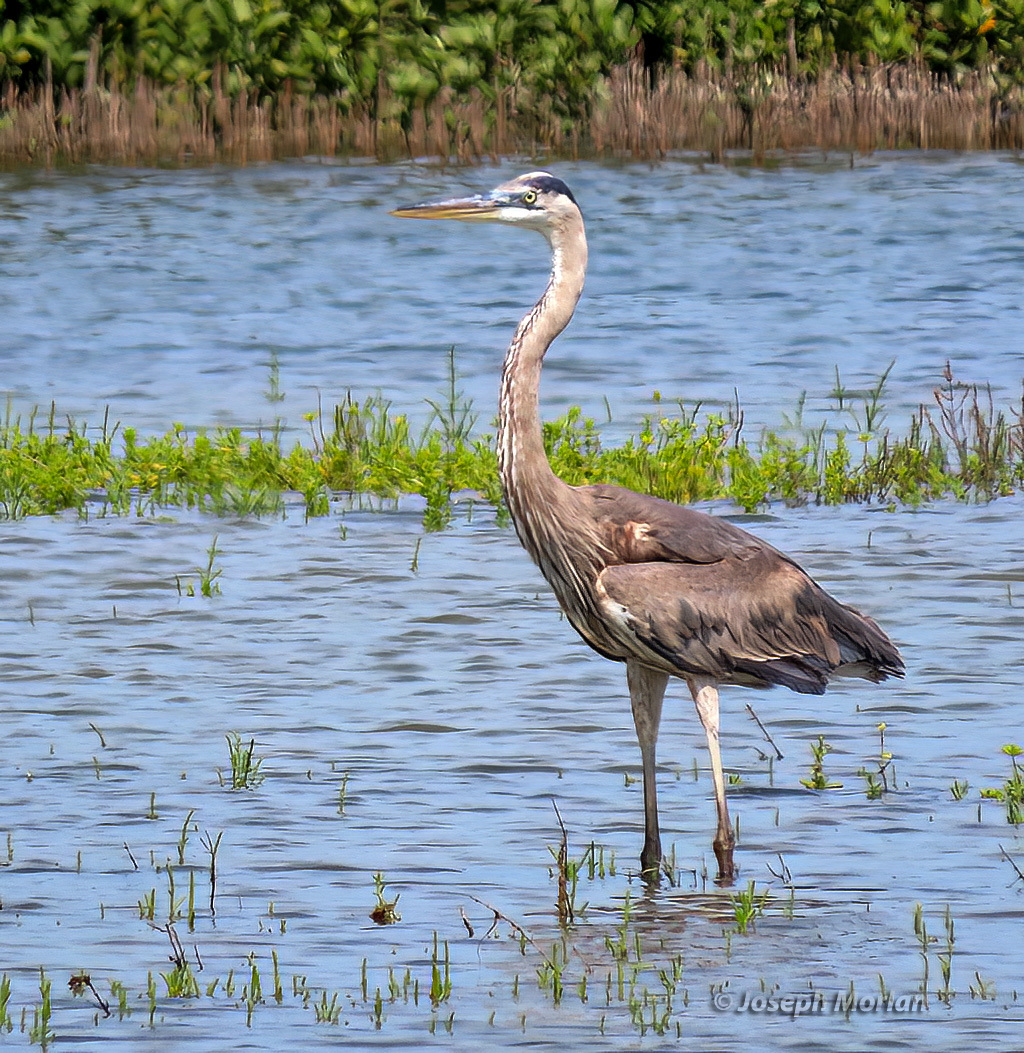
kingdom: Animalia
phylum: Chordata
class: Aves
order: Pelecaniformes
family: Ardeidae
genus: Ardea
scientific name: Ardea herodias
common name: Great blue heron
